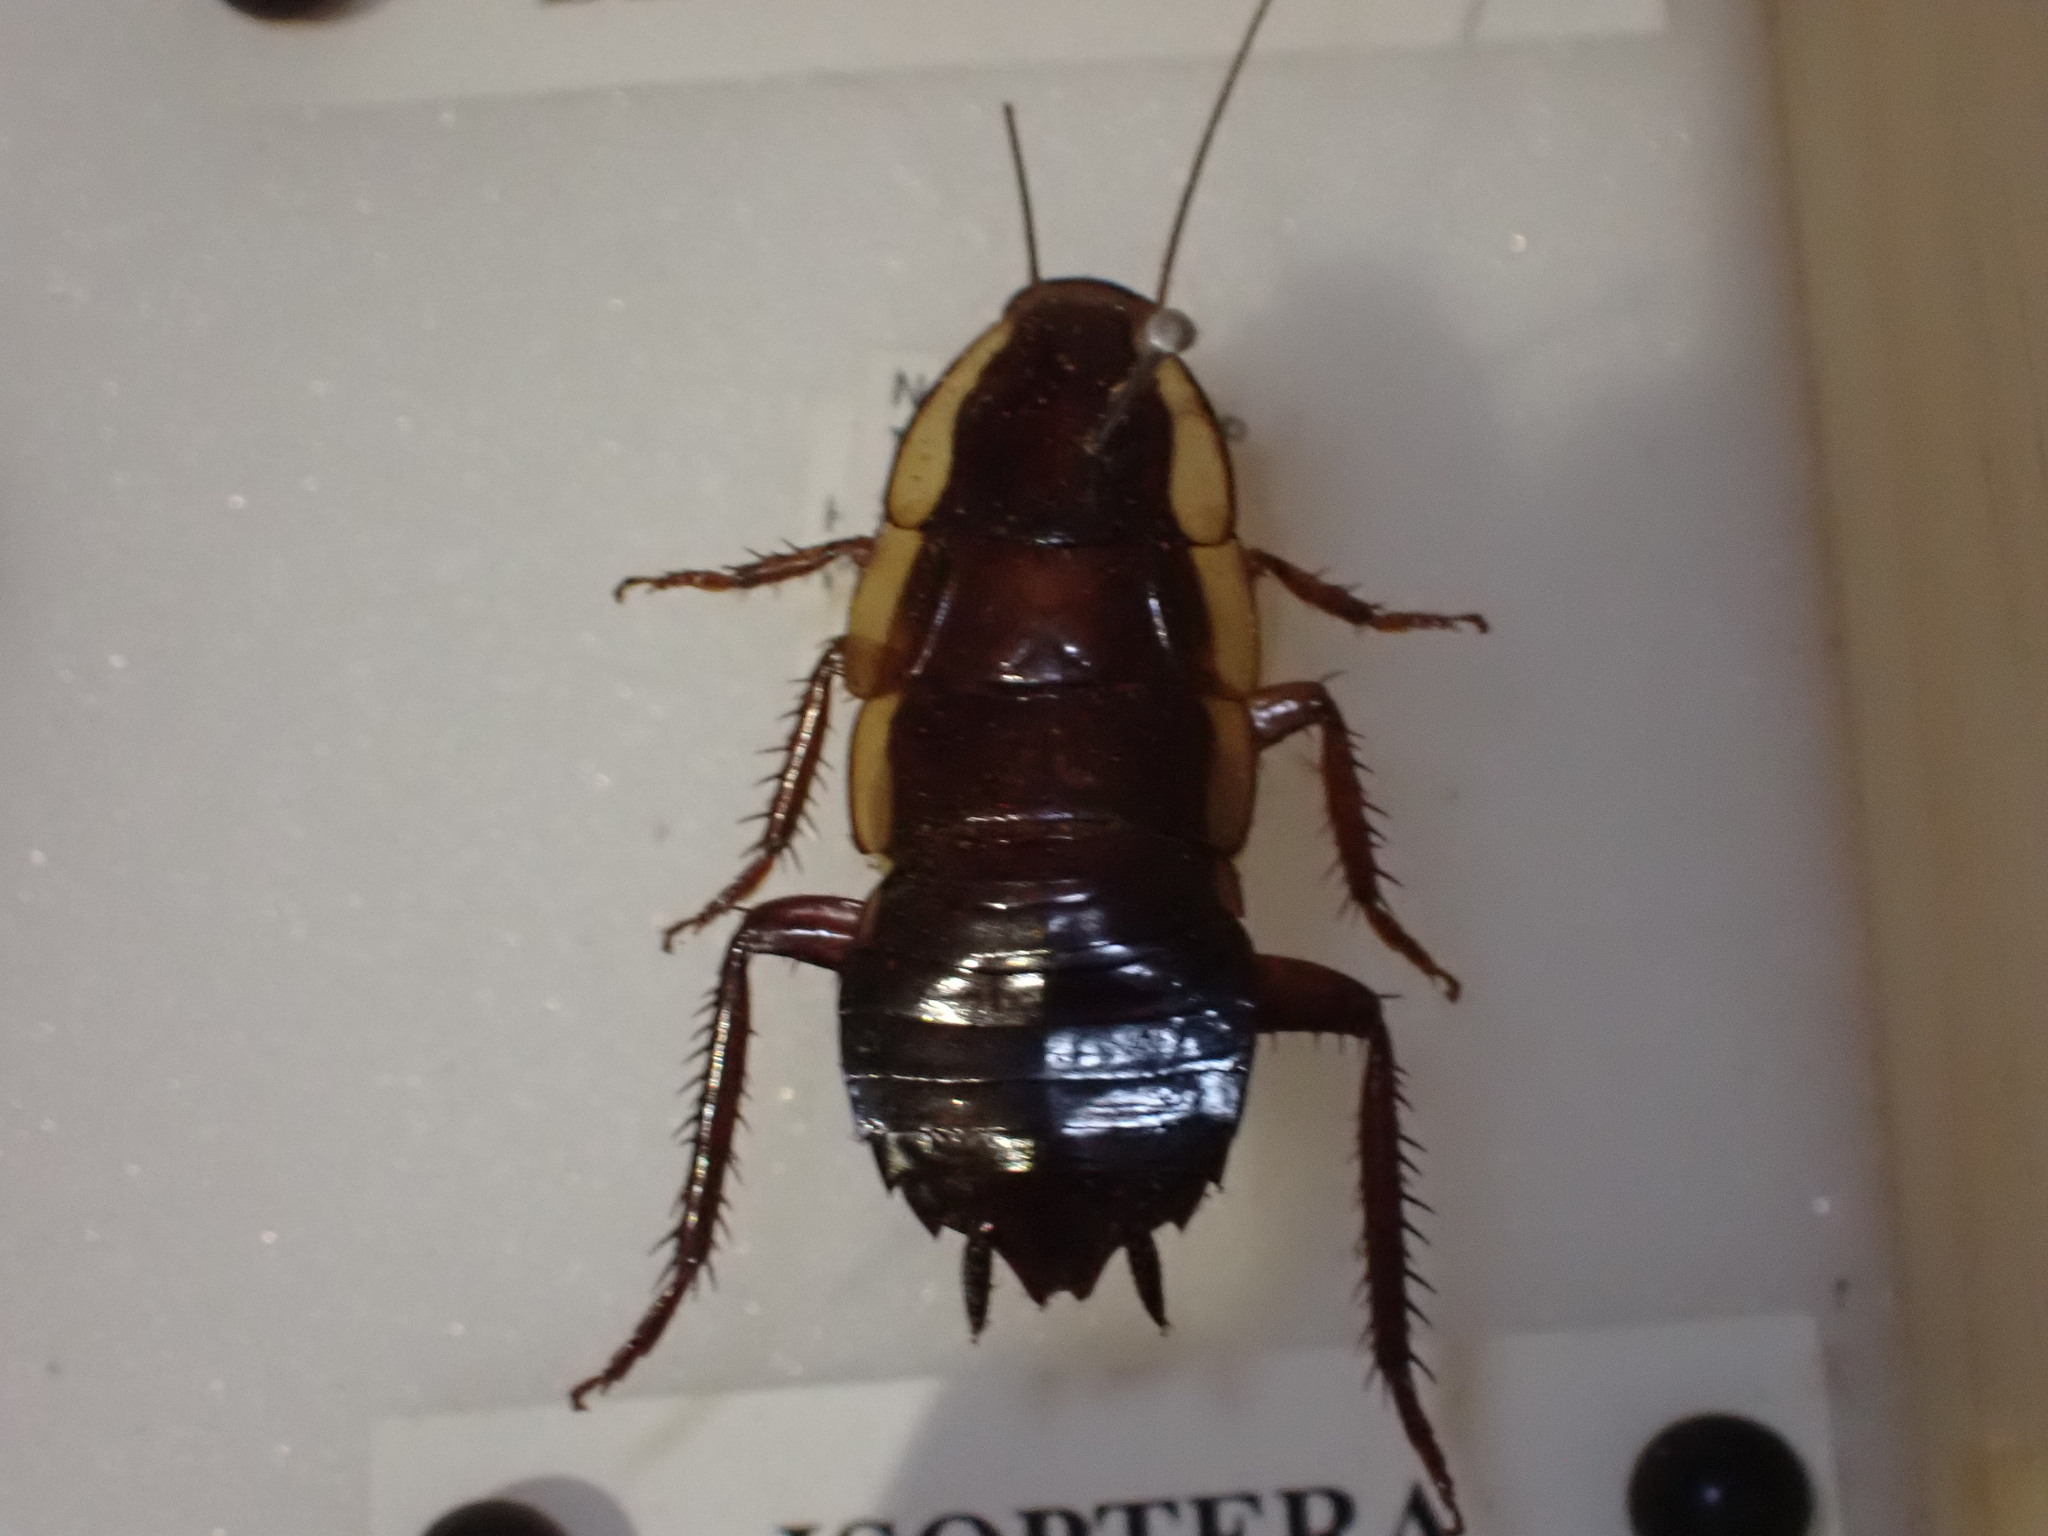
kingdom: Animalia
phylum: Arthropoda
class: Insecta
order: Blattodea
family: Blattidae
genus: Drymaplaneta
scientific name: Drymaplaneta semivitta
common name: Gisborne cockroach
